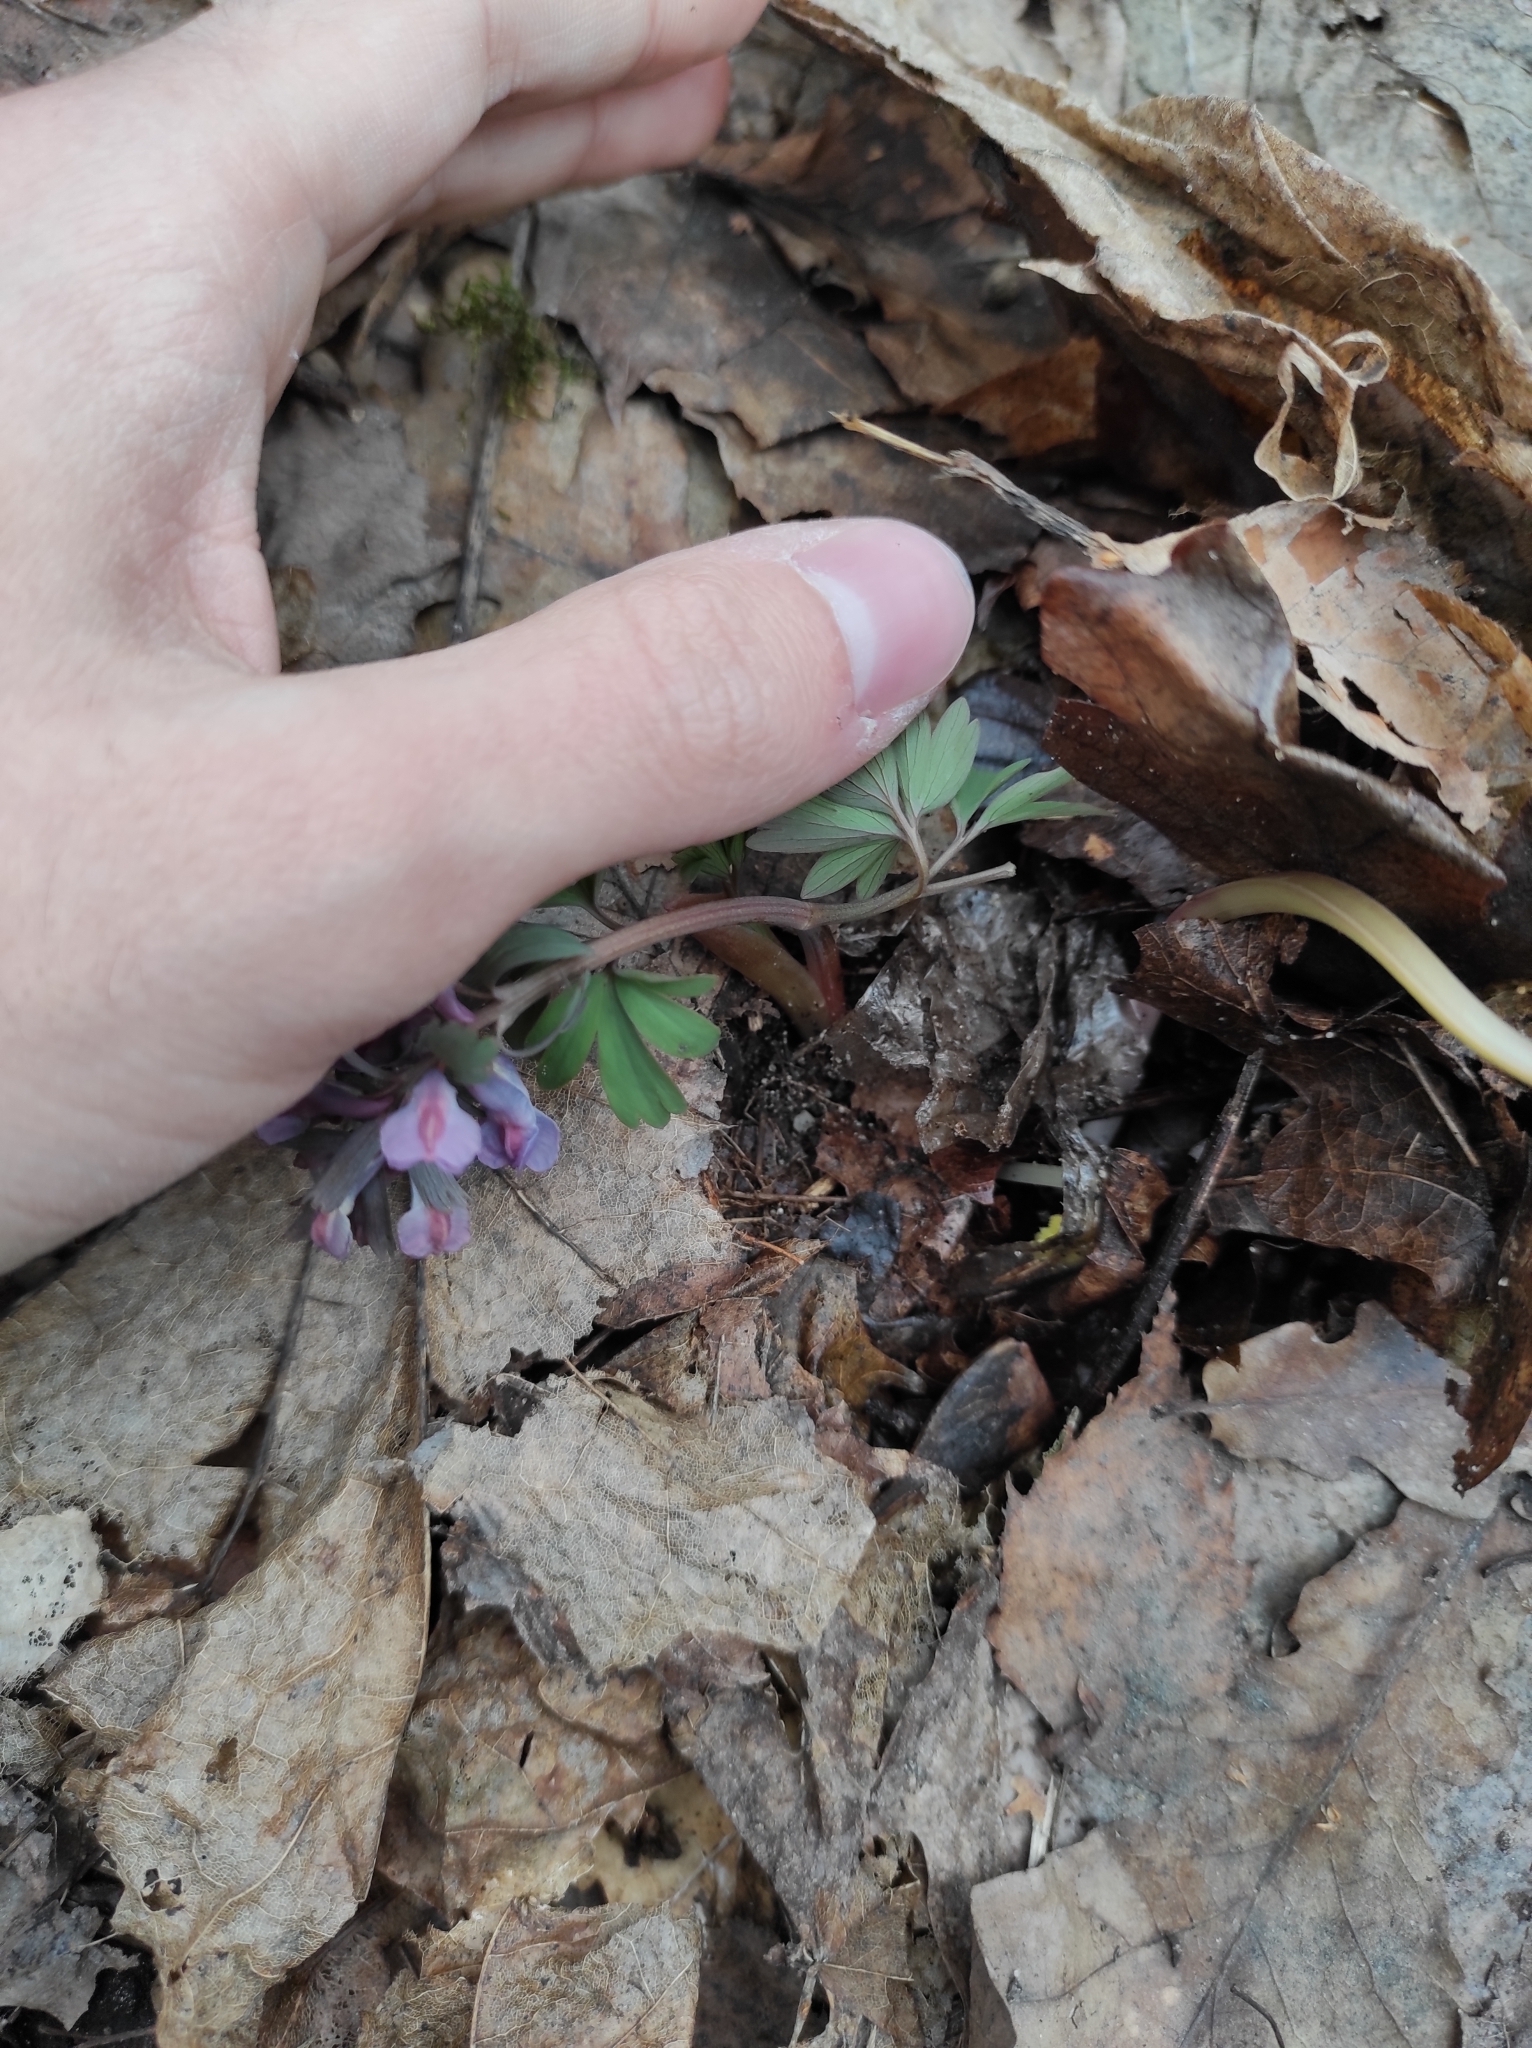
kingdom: Plantae
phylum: Tracheophyta
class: Magnoliopsida
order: Ranunculales
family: Papaveraceae
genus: Corydalis
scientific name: Corydalis solida
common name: Bird-in-a-bush
